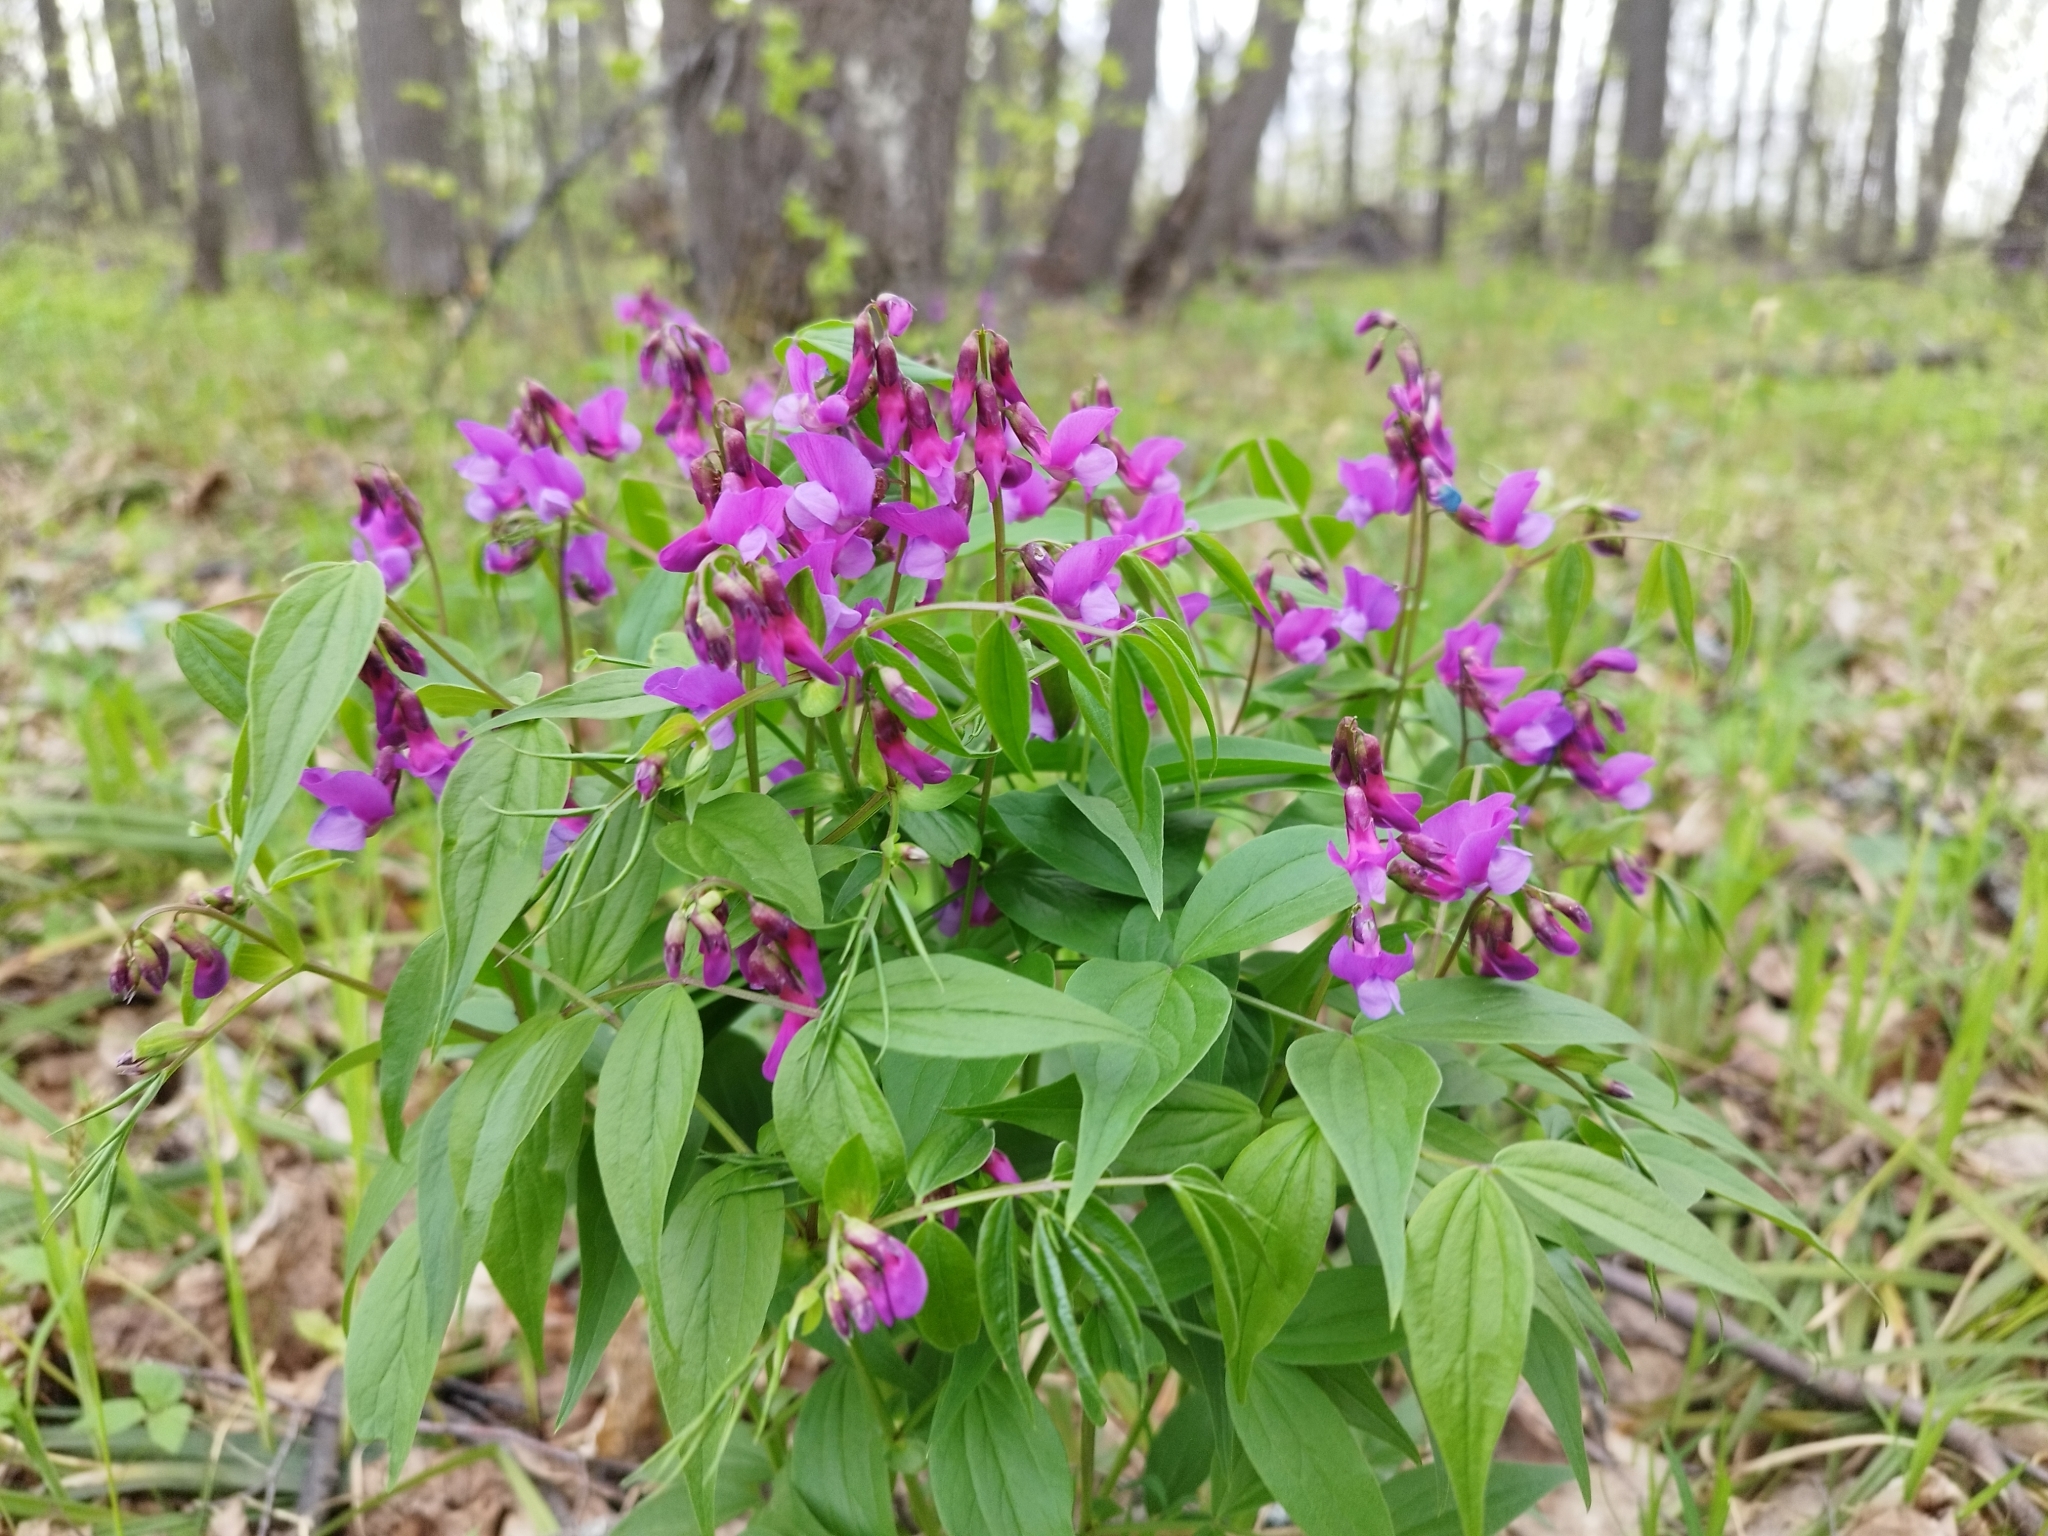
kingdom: Plantae
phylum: Tracheophyta
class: Magnoliopsida
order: Fabales
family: Fabaceae
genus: Lathyrus
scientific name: Lathyrus vernus
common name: Spring pea
